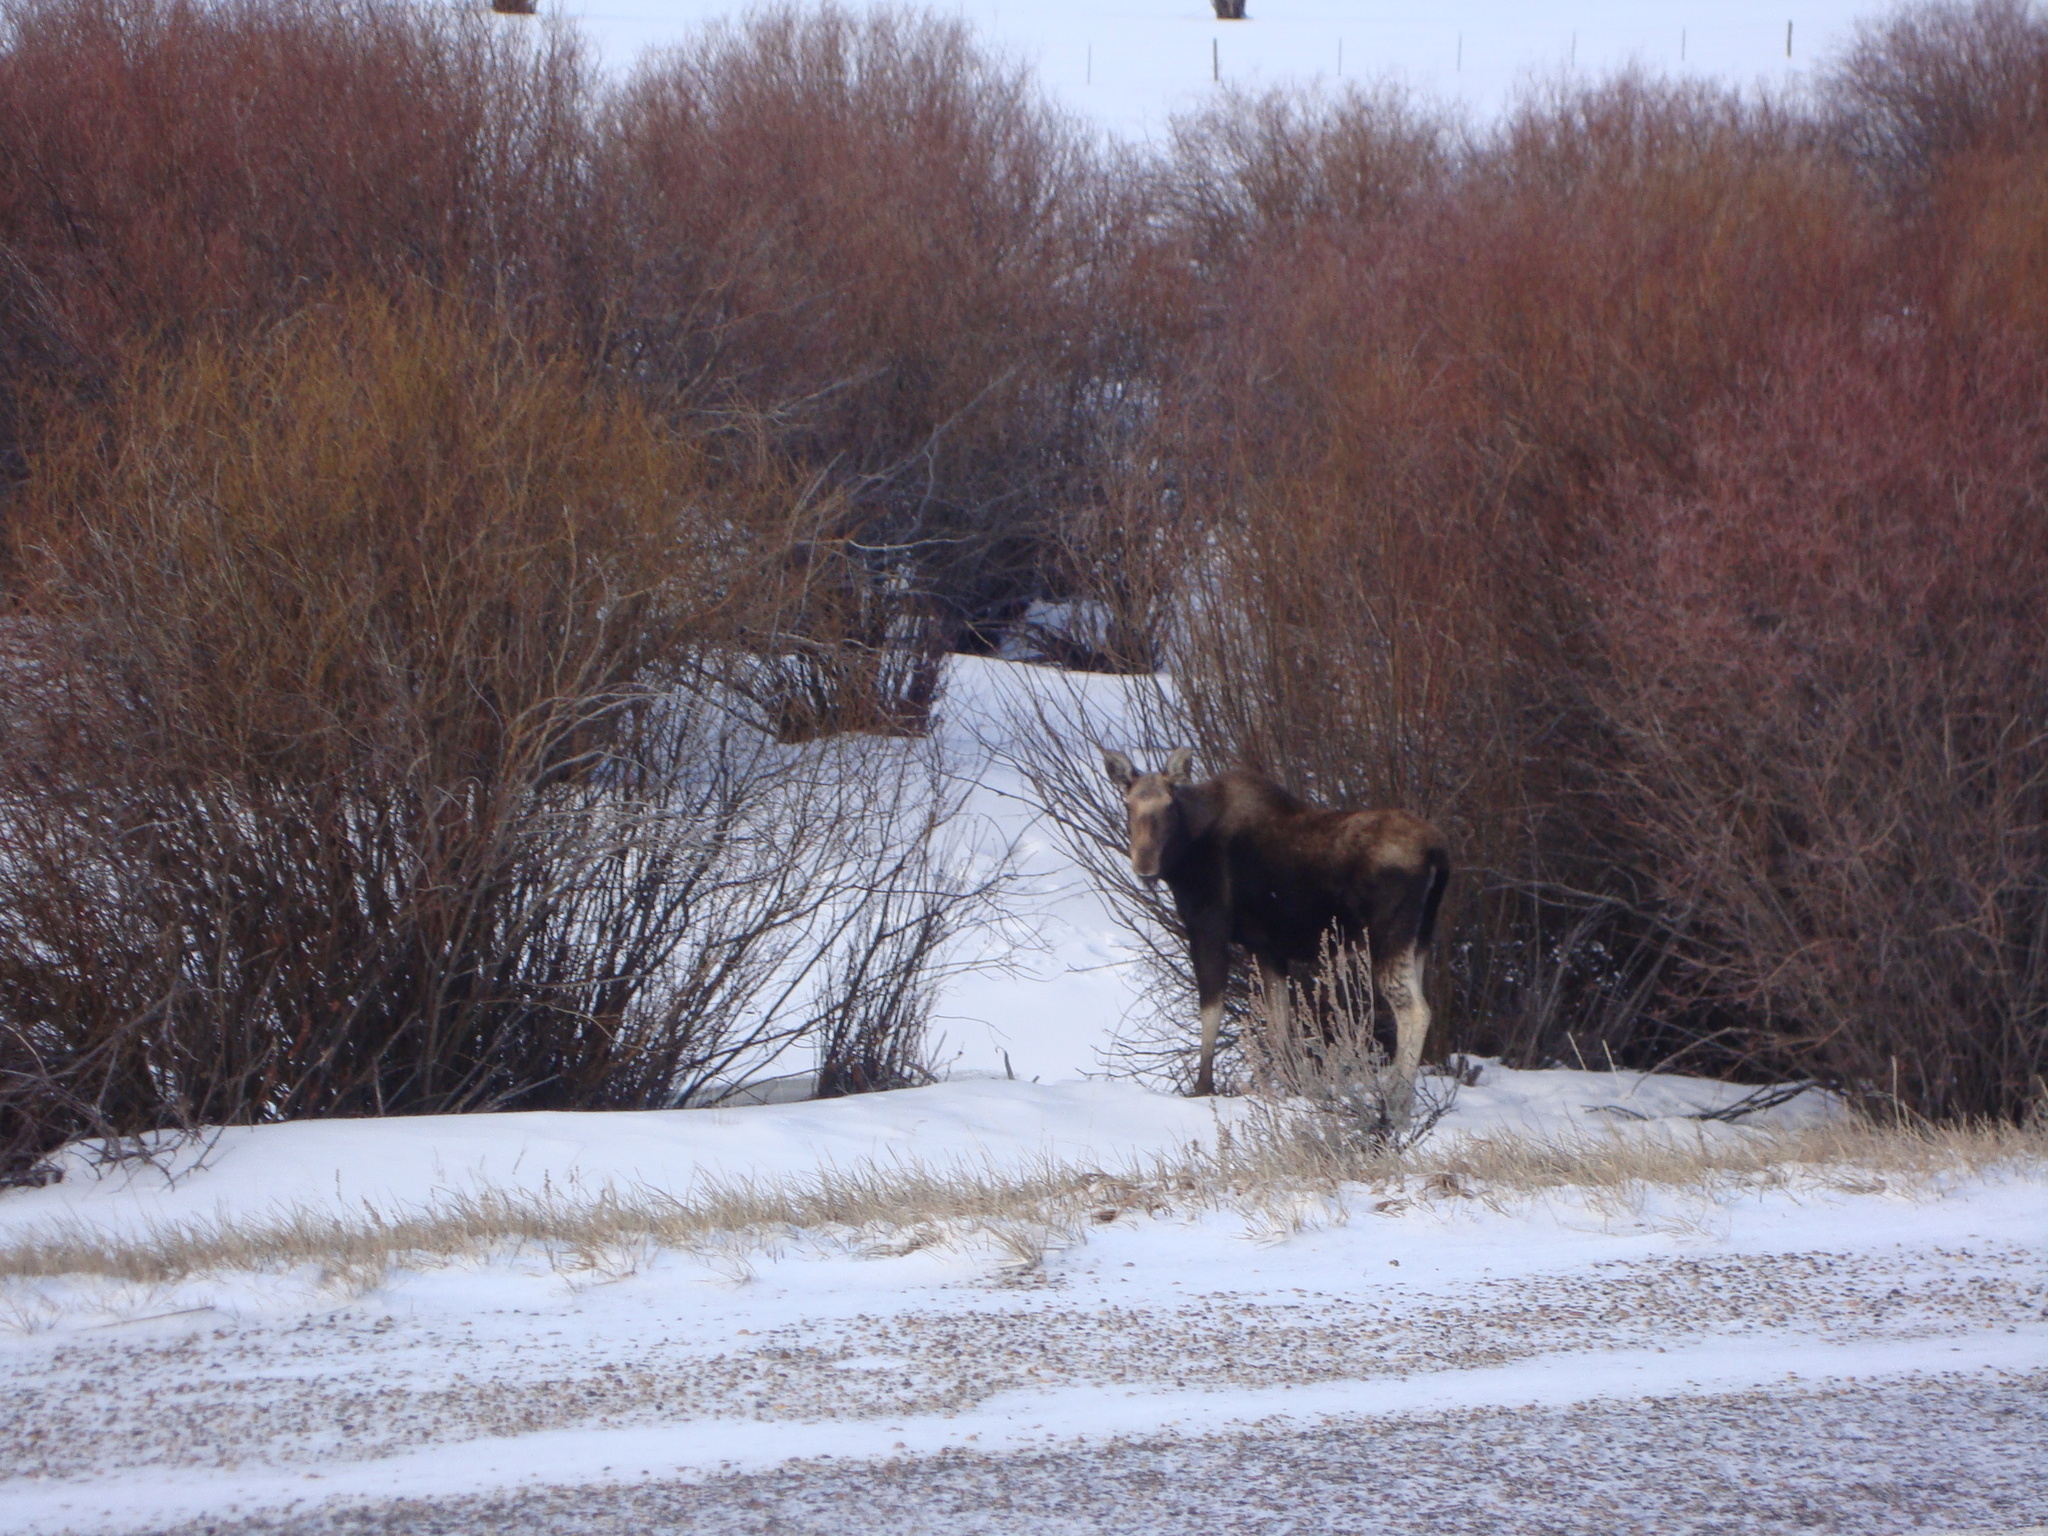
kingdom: Animalia
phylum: Chordata
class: Mammalia
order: Artiodactyla
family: Cervidae
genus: Alces
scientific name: Alces alces
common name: Moose
